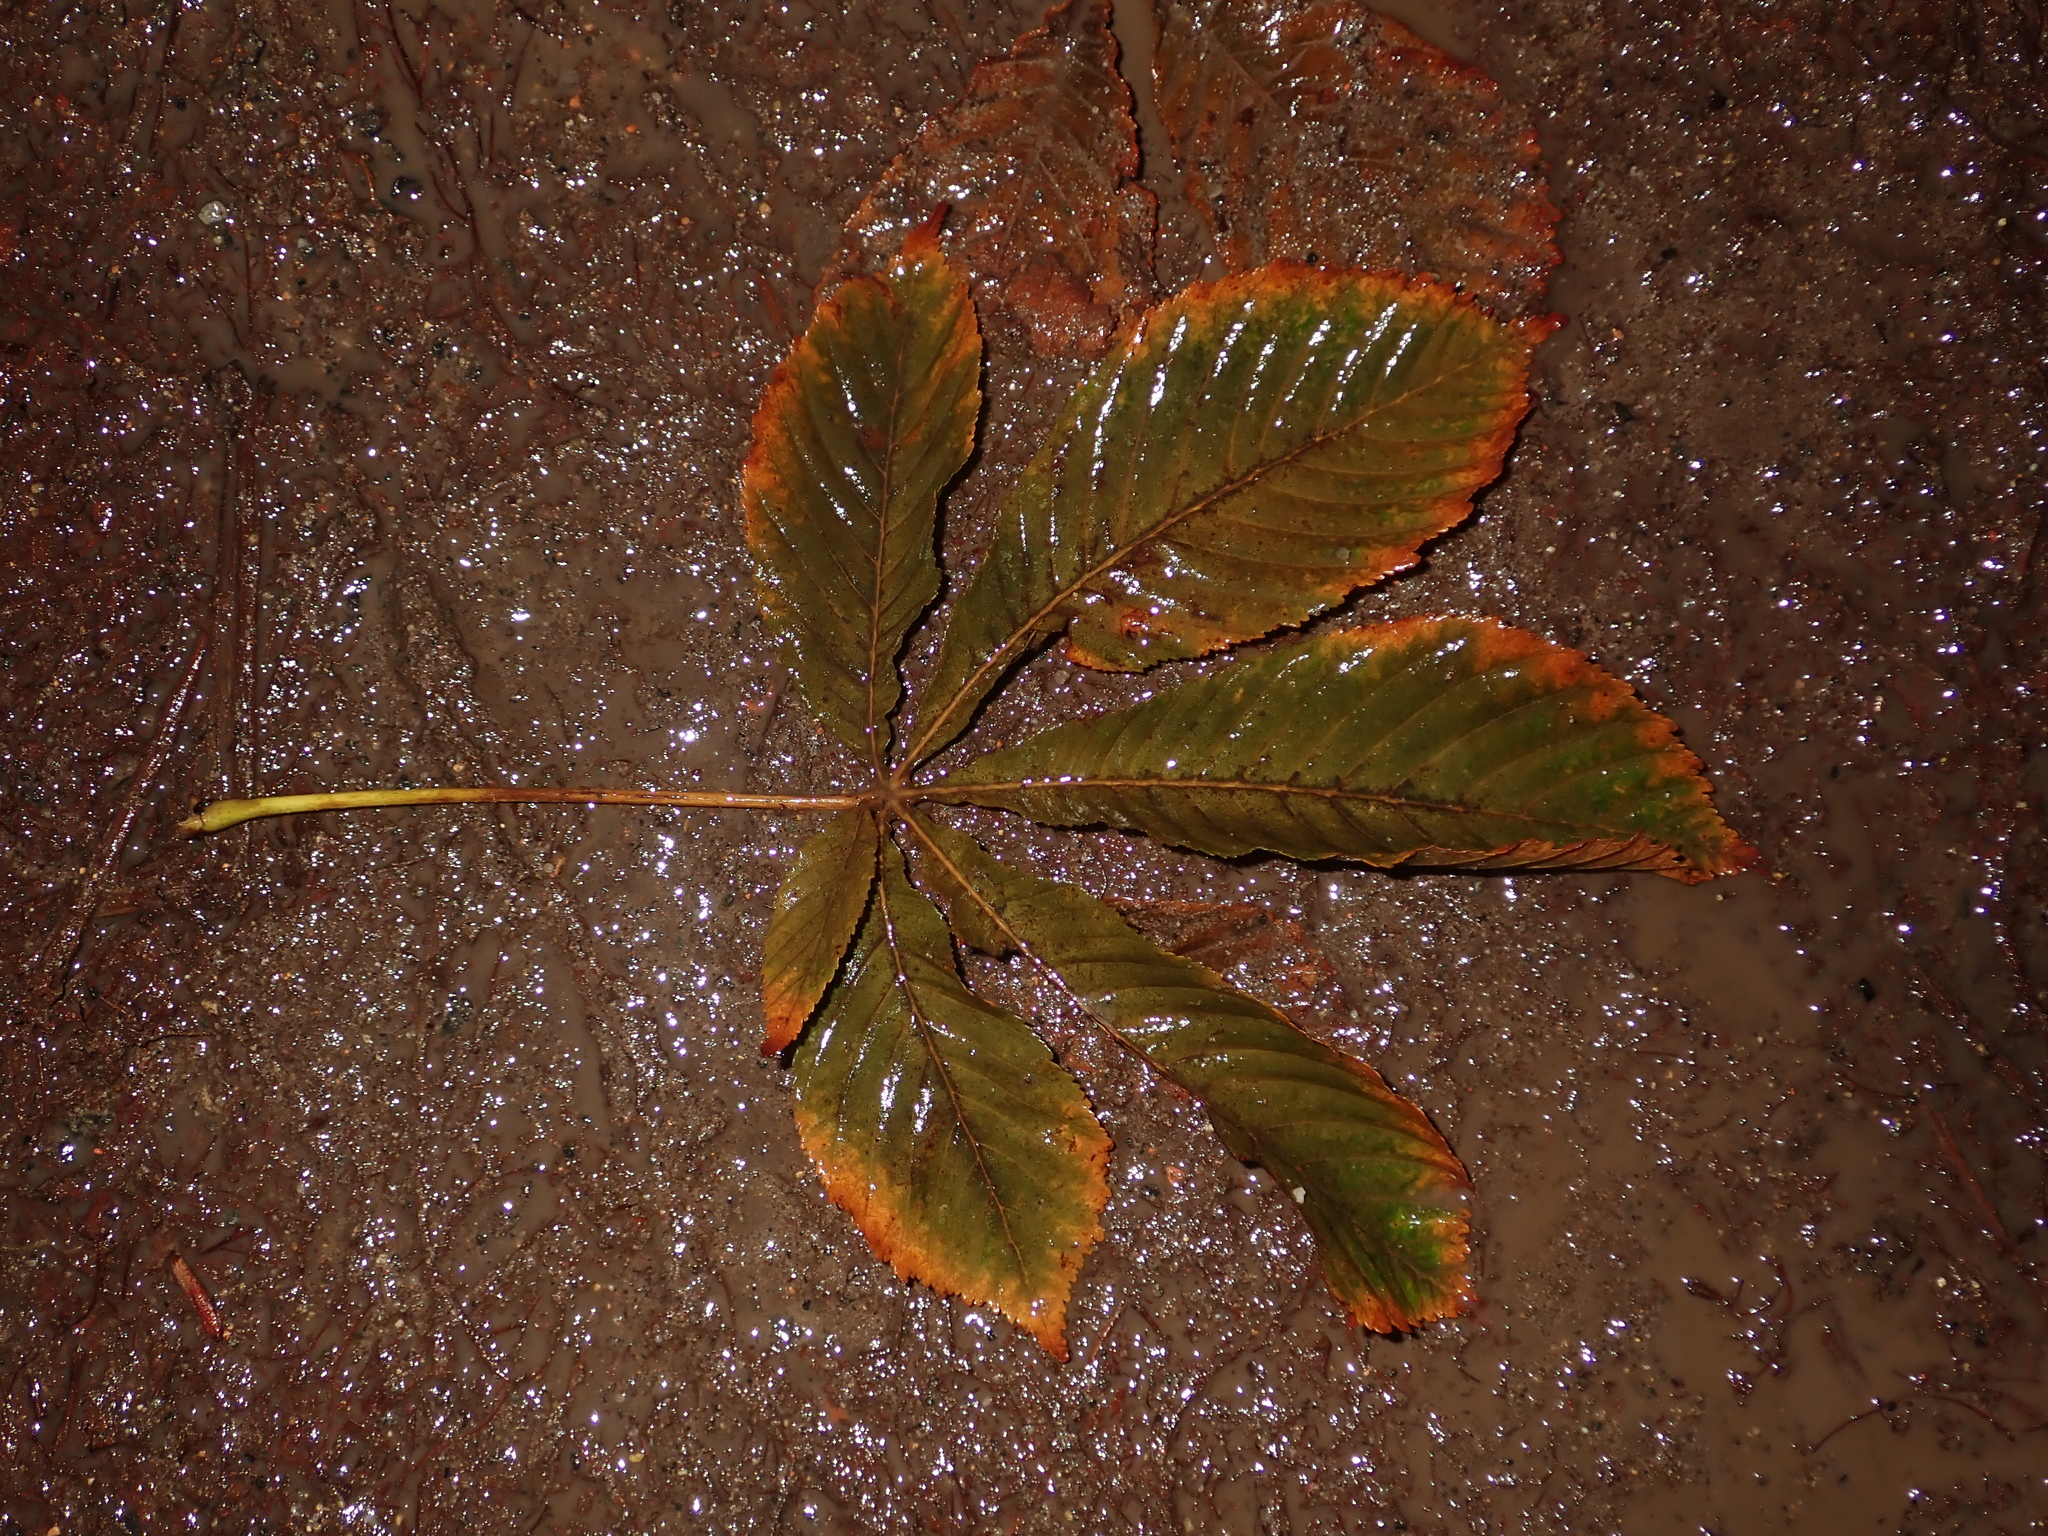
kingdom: Plantae
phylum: Tracheophyta
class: Magnoliopsida
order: Sapindales
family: Sapindaceae
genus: Aesculus
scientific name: Aesculus hippocastanum
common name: Horse-chestnut
